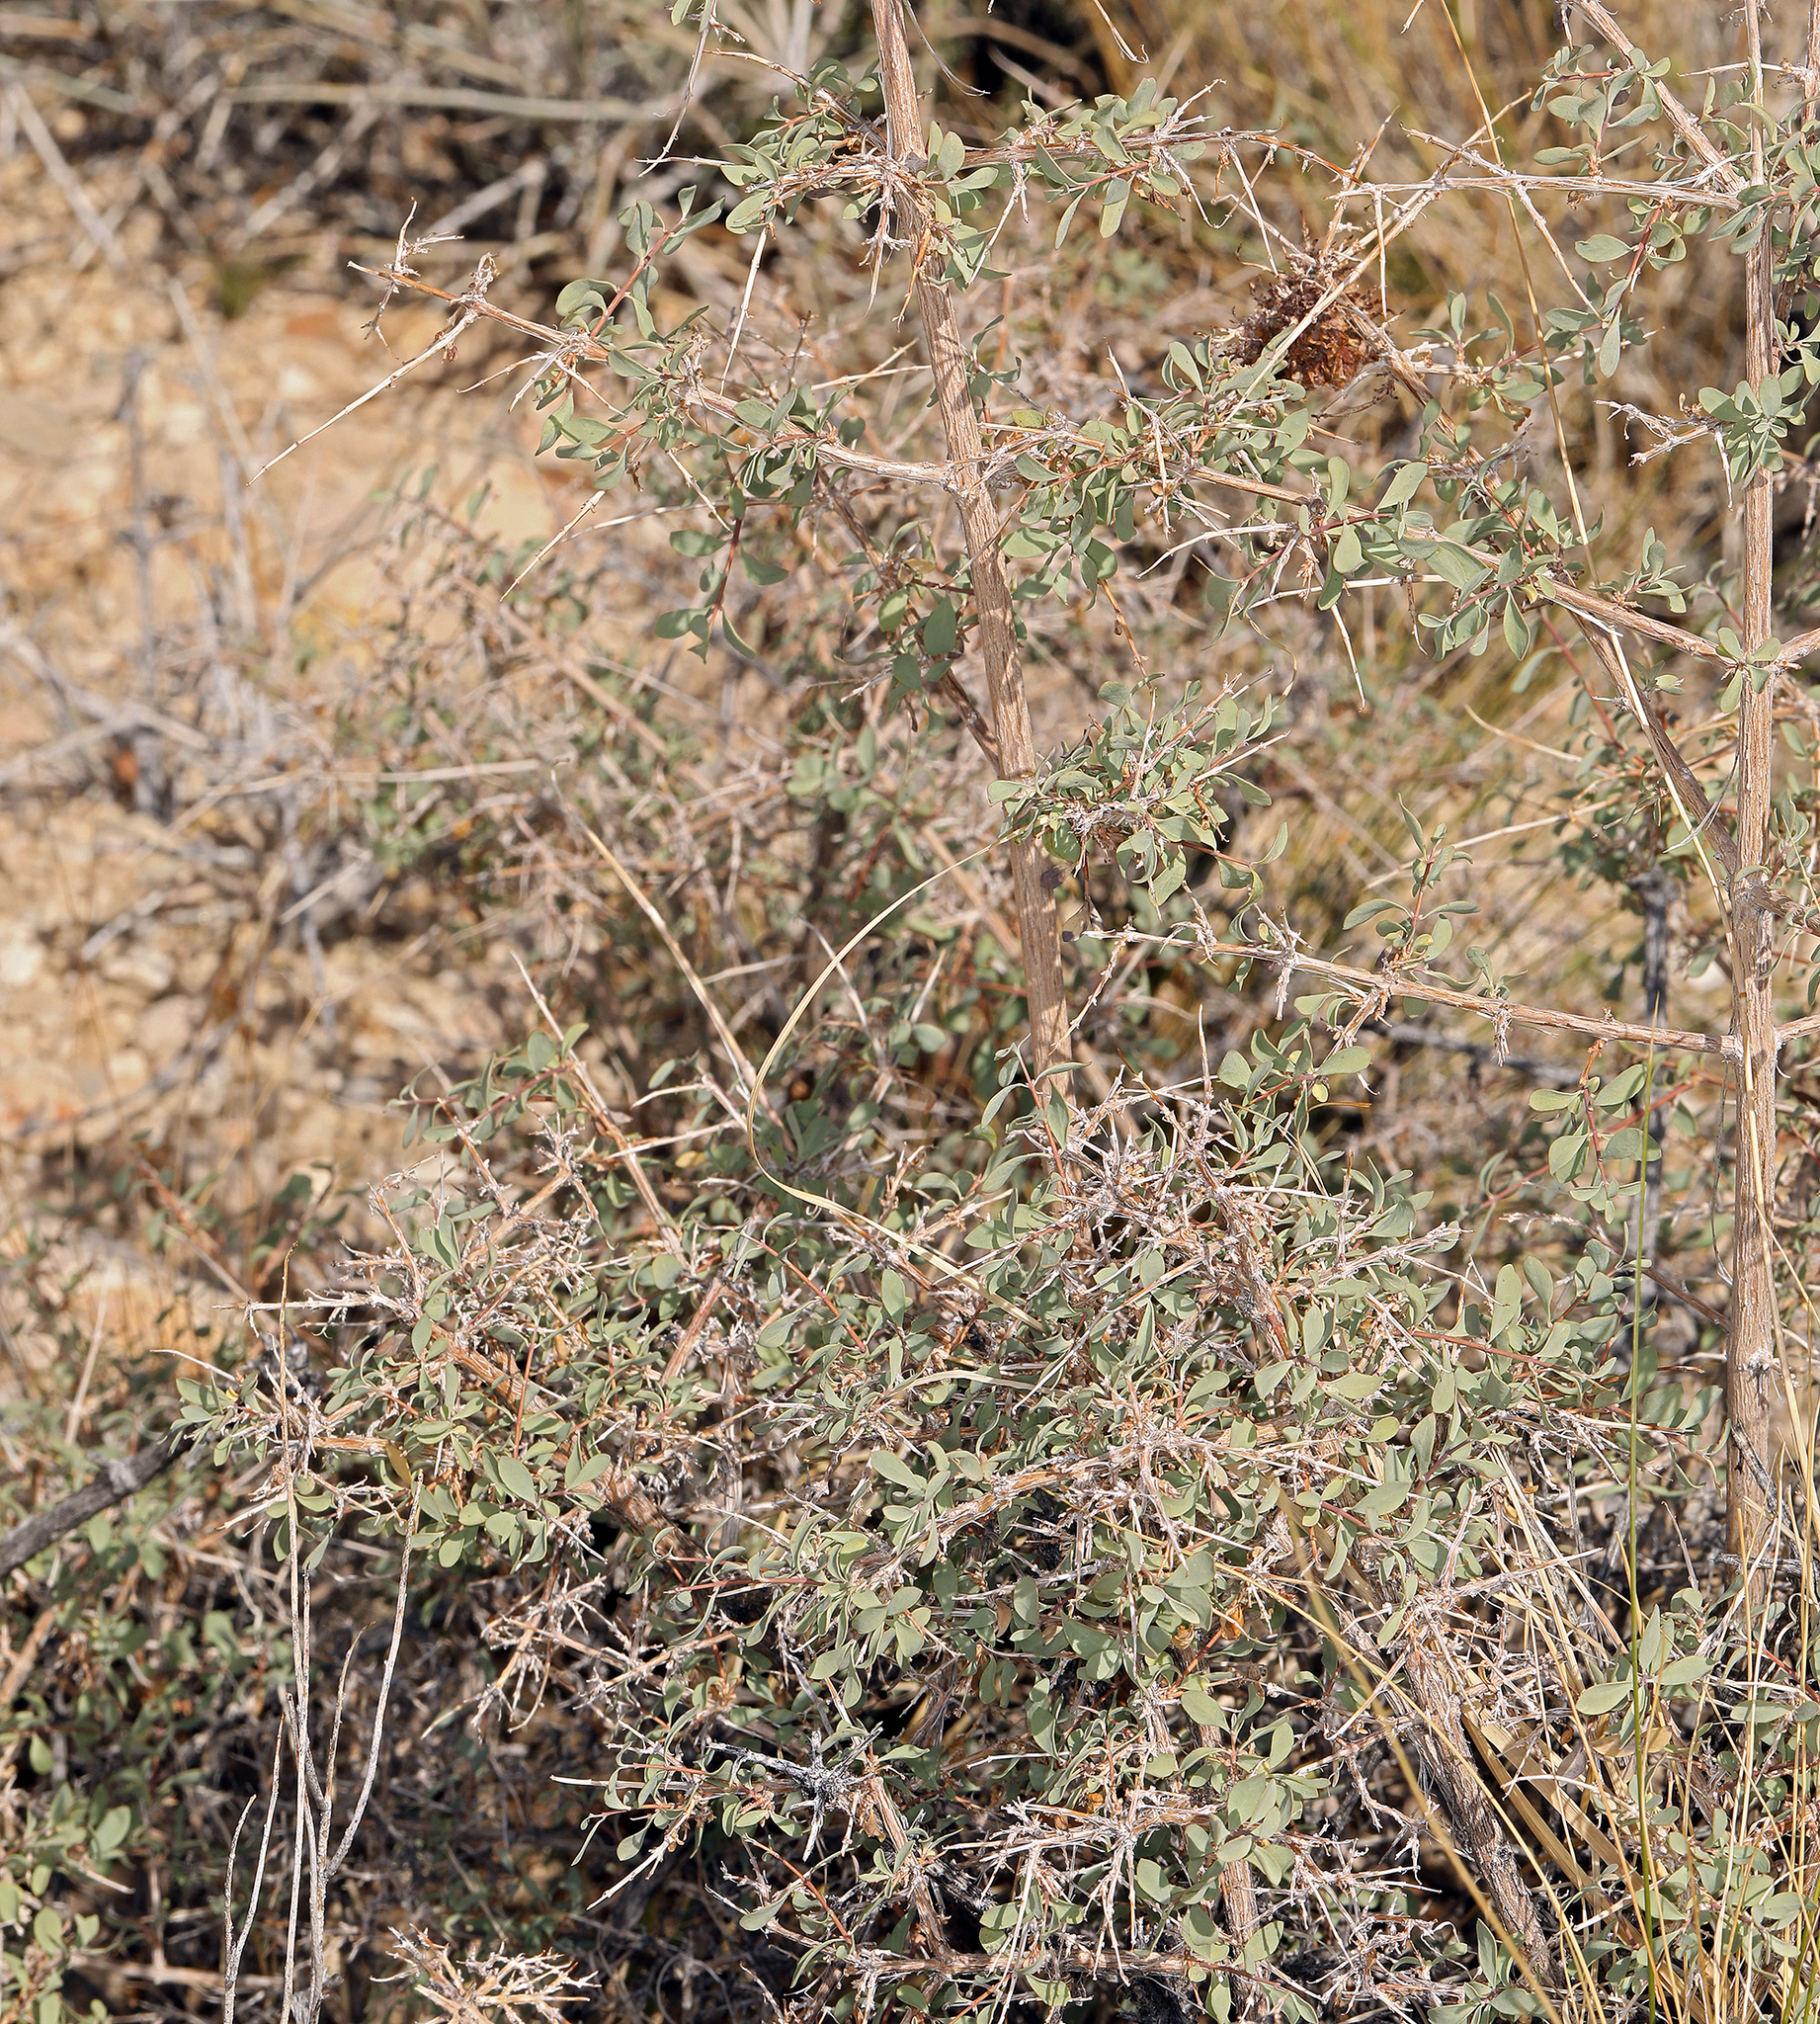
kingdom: Plantae
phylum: Tracheophyta
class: Magnoliopsida
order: Dipsacales
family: Caprifoliaceae
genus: Symphoricarpos
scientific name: Symphoricarpos longiflorus
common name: Fragrant snowberry
